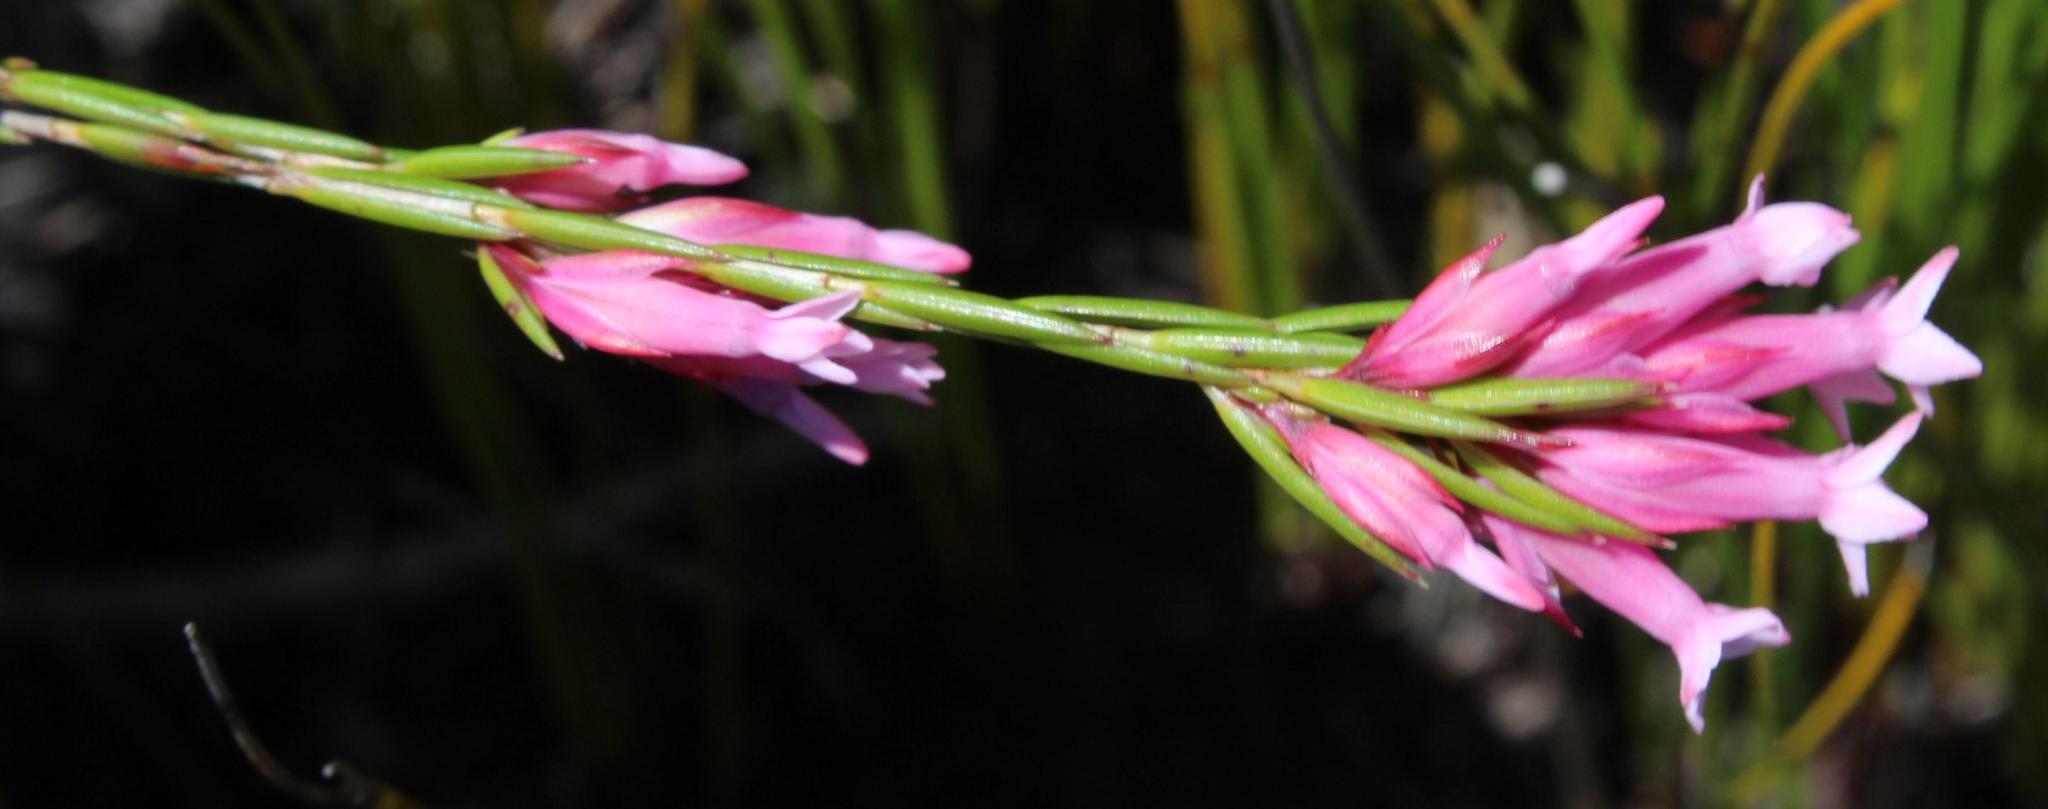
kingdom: Plantae
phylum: Tracheophyta
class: Magnoliopsida
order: Ericales
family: Ericaceae
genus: Erica
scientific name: Erica pycnantha
